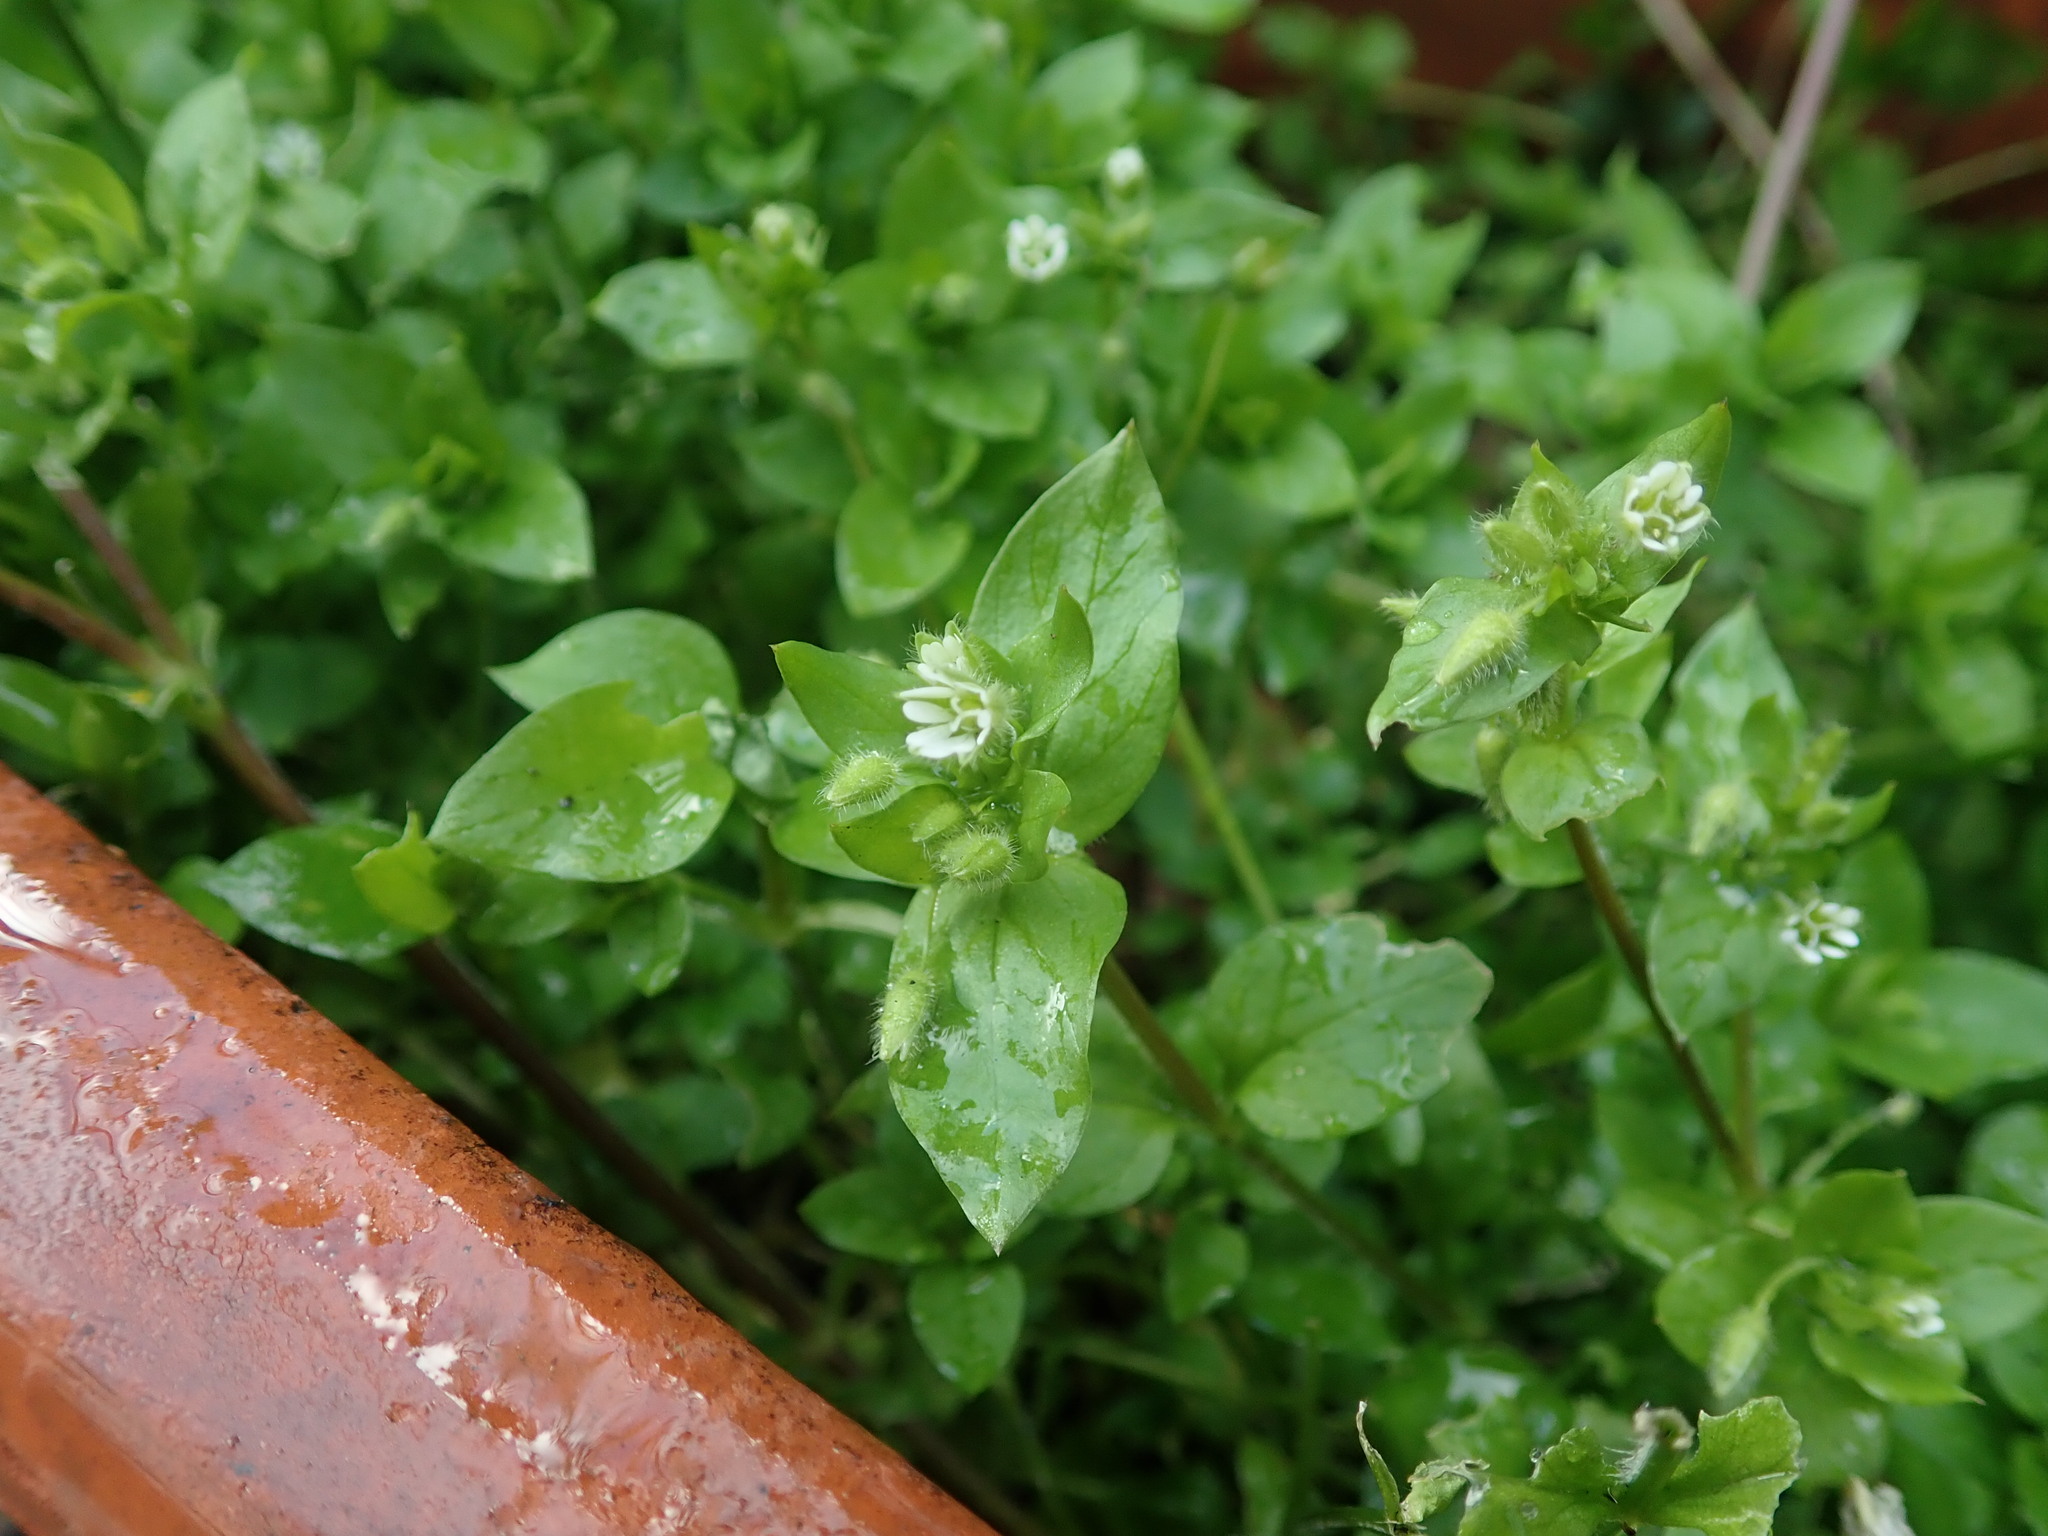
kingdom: Plantae
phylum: Tracheophyta
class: Magnoliopsida
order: Caryophyllales
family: Caryophyllaceae
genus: Stellaria
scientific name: Stellaria media
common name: Common chickweed
